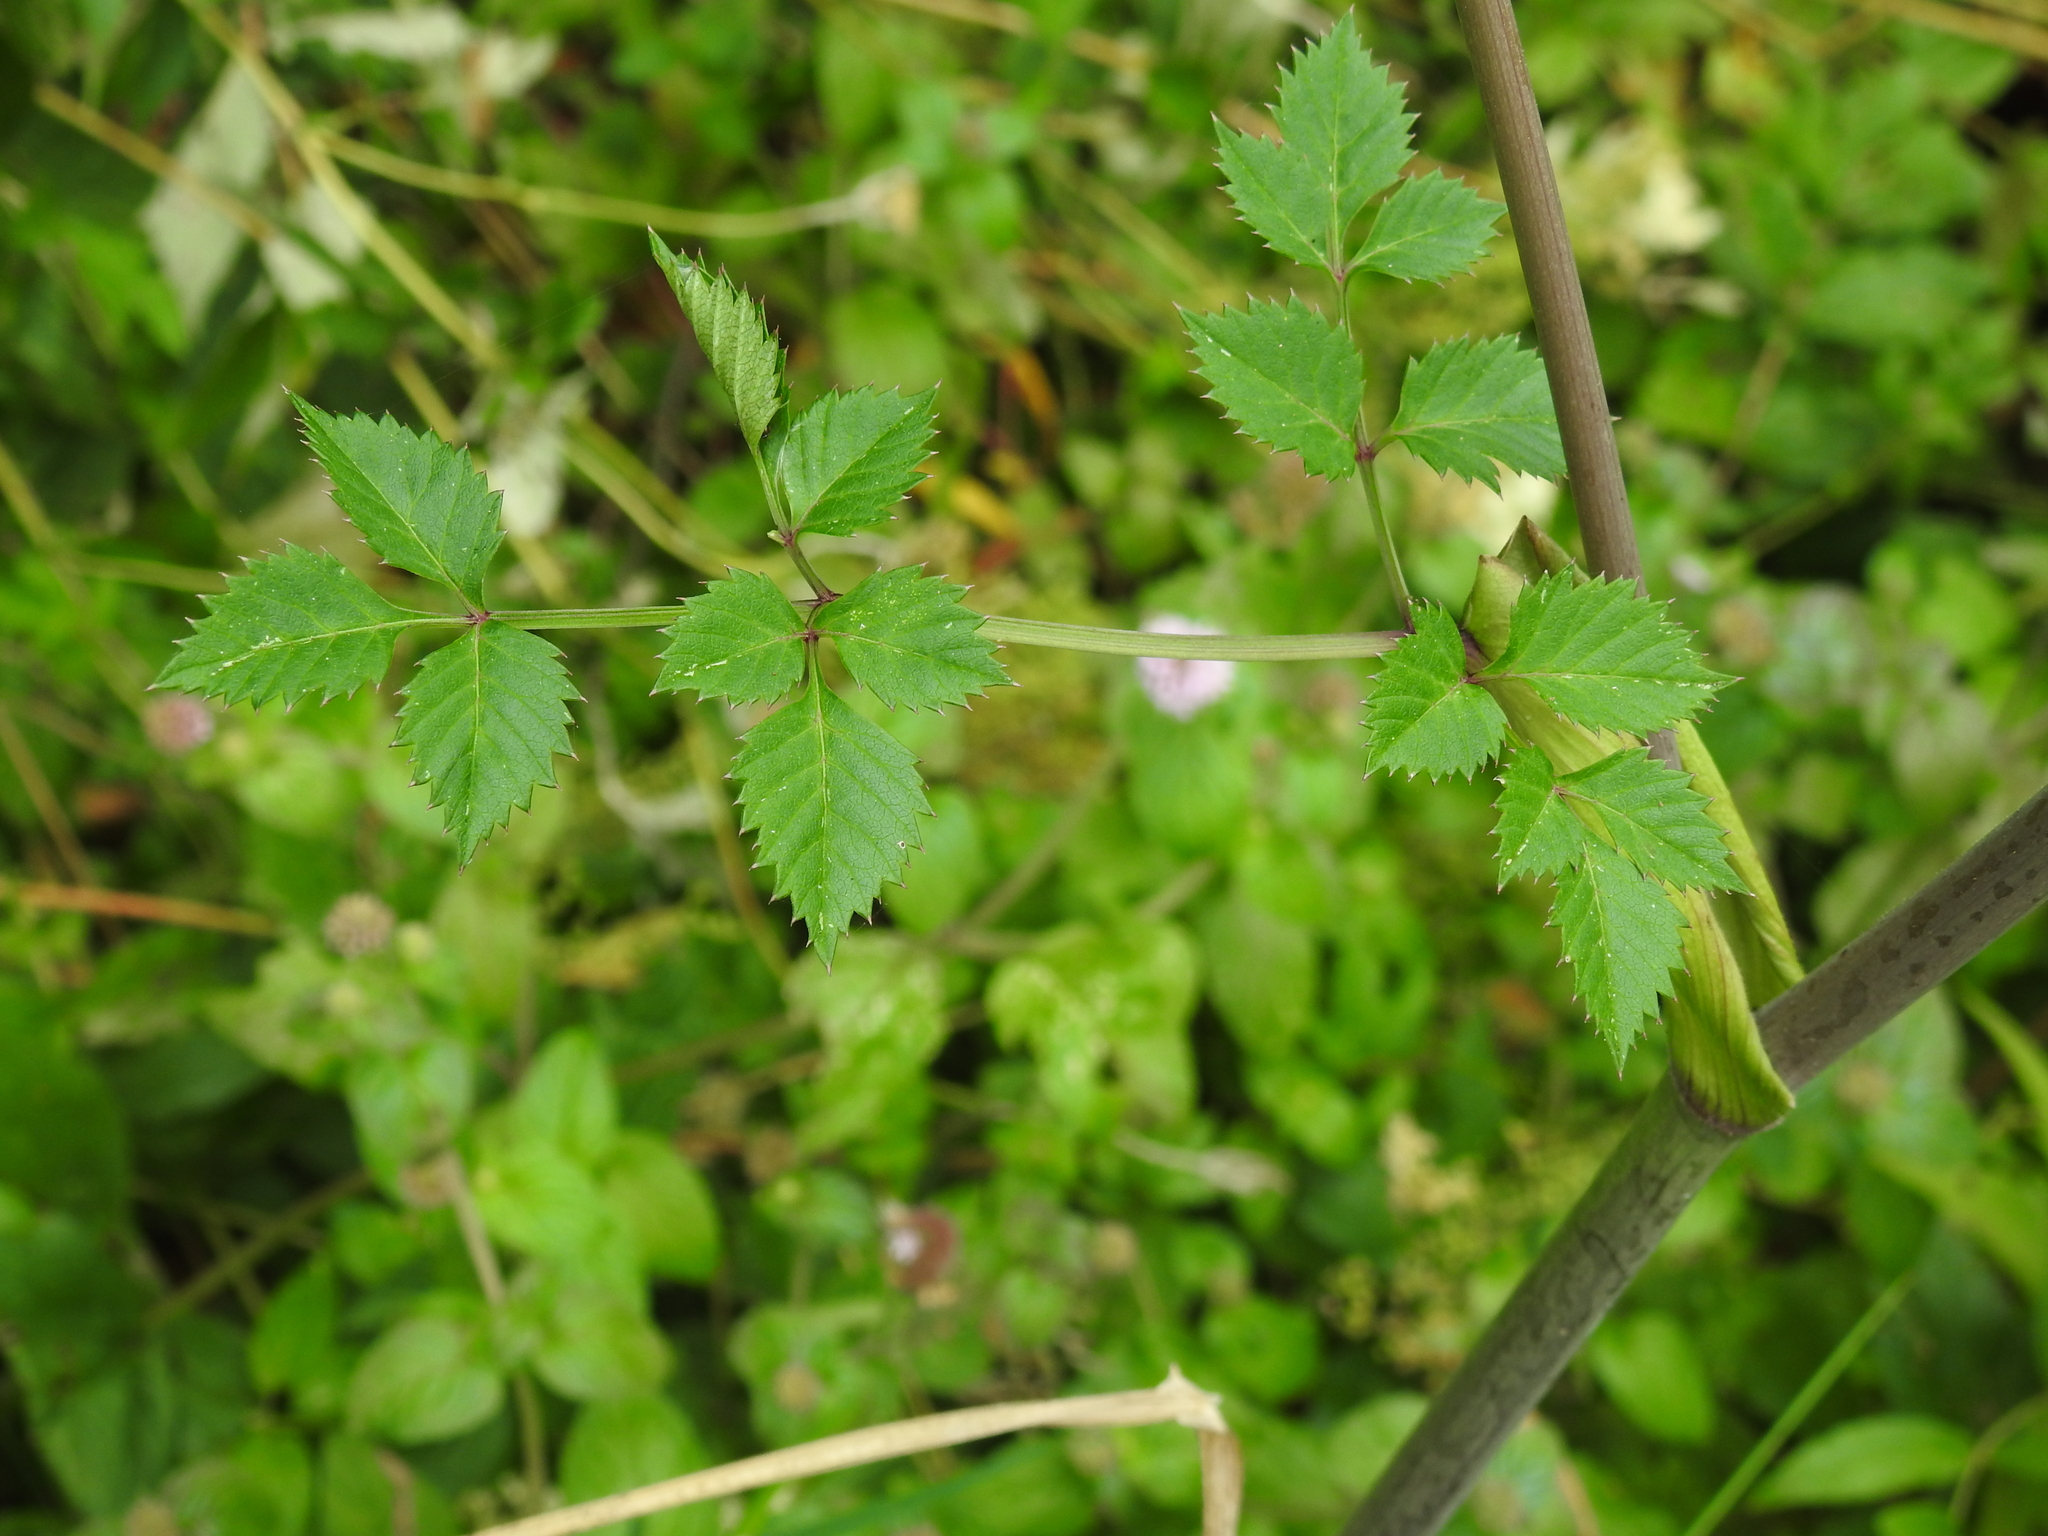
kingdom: Plantae
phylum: Tracheophyta
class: Magnoliopsida
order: Apiales
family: Apiaceae
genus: Angelica
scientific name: Angelica sylvestris
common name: Wild angelica
